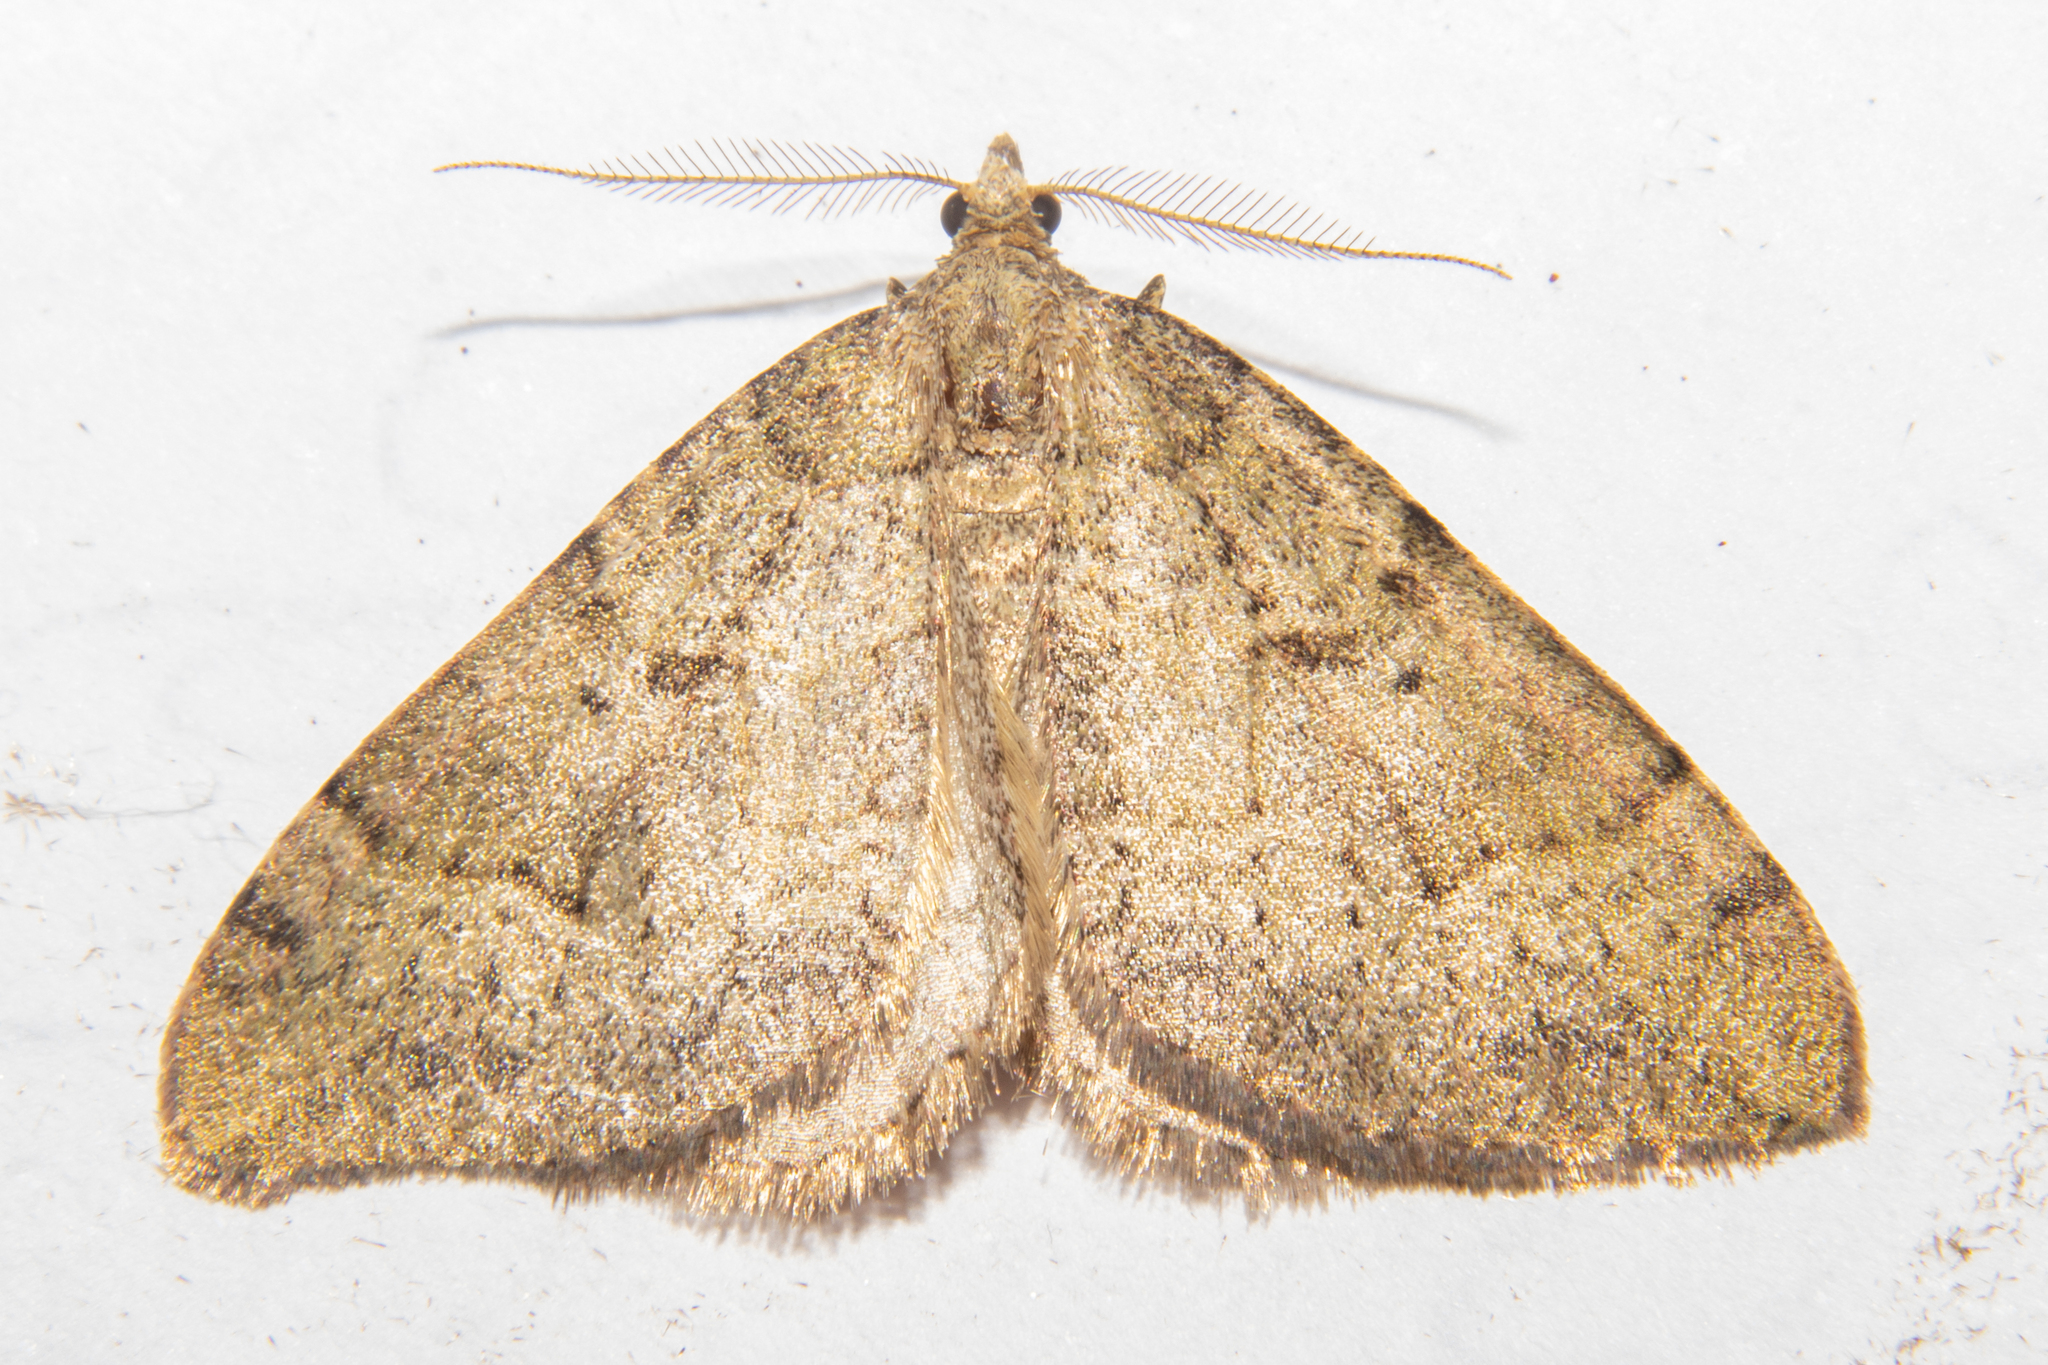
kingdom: Animalia
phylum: Arthropoda
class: Insecta
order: Lepidoptera
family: Geometridae
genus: Epyaxa
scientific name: Epyaxa rosearia
